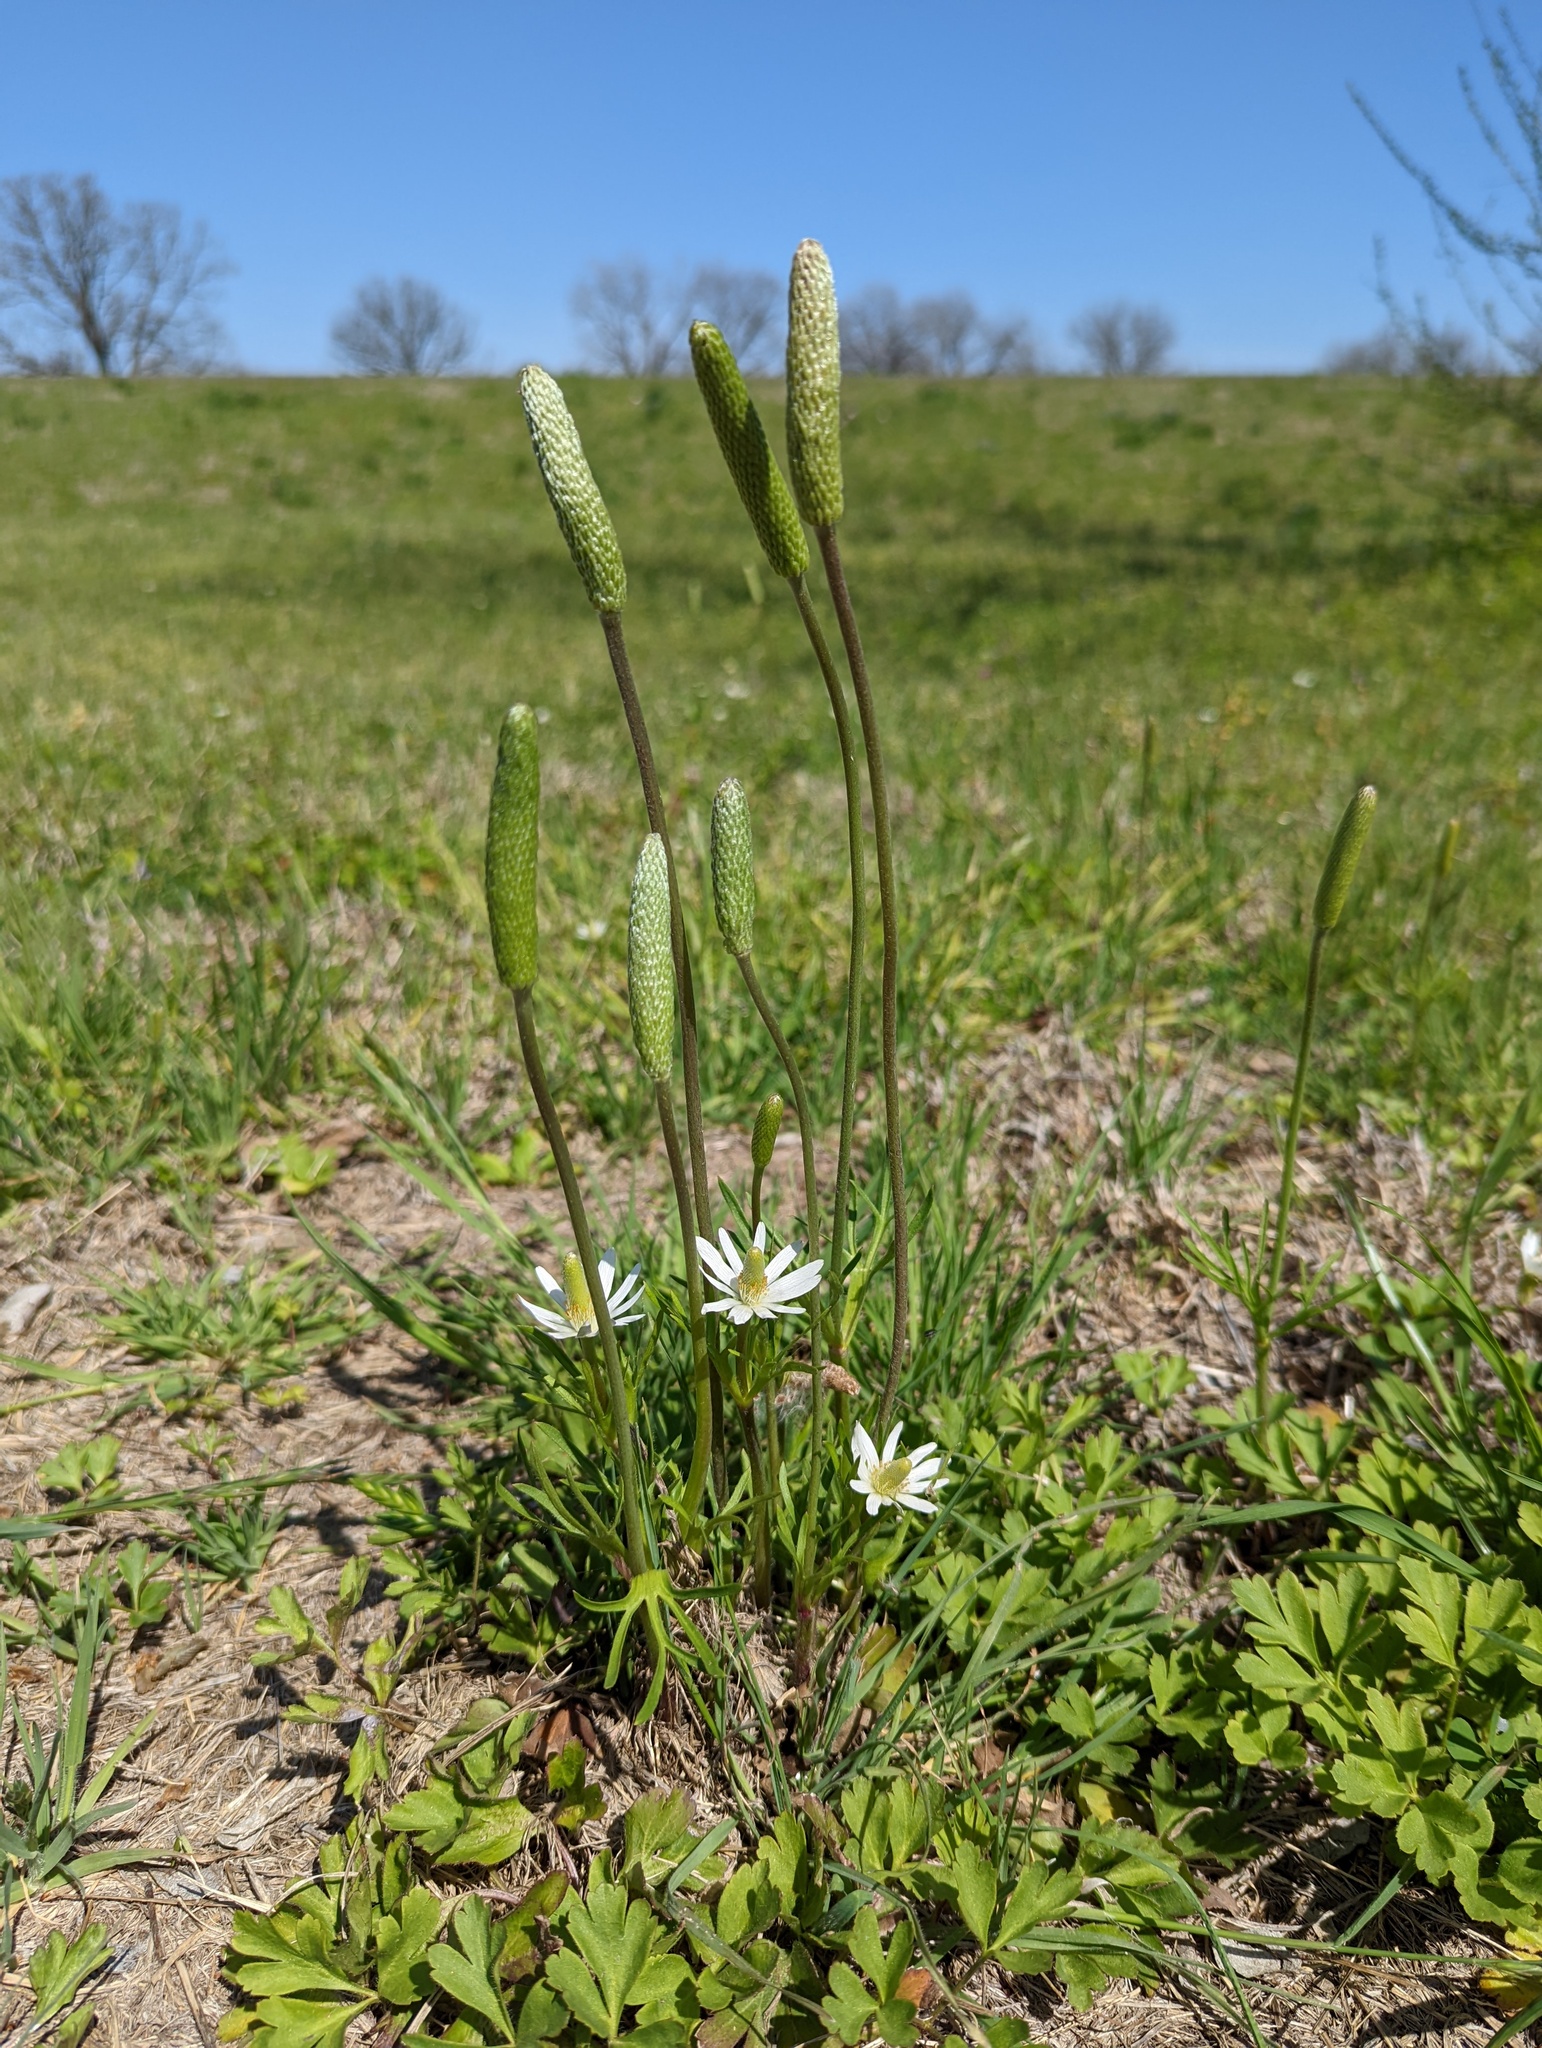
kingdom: Plantae
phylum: Tracheophyta
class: Magnoliopsida
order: Ranunculales
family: Ranunculaceae
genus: Anemone
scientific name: Anemone berlandieri
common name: Ten-petal anemone
